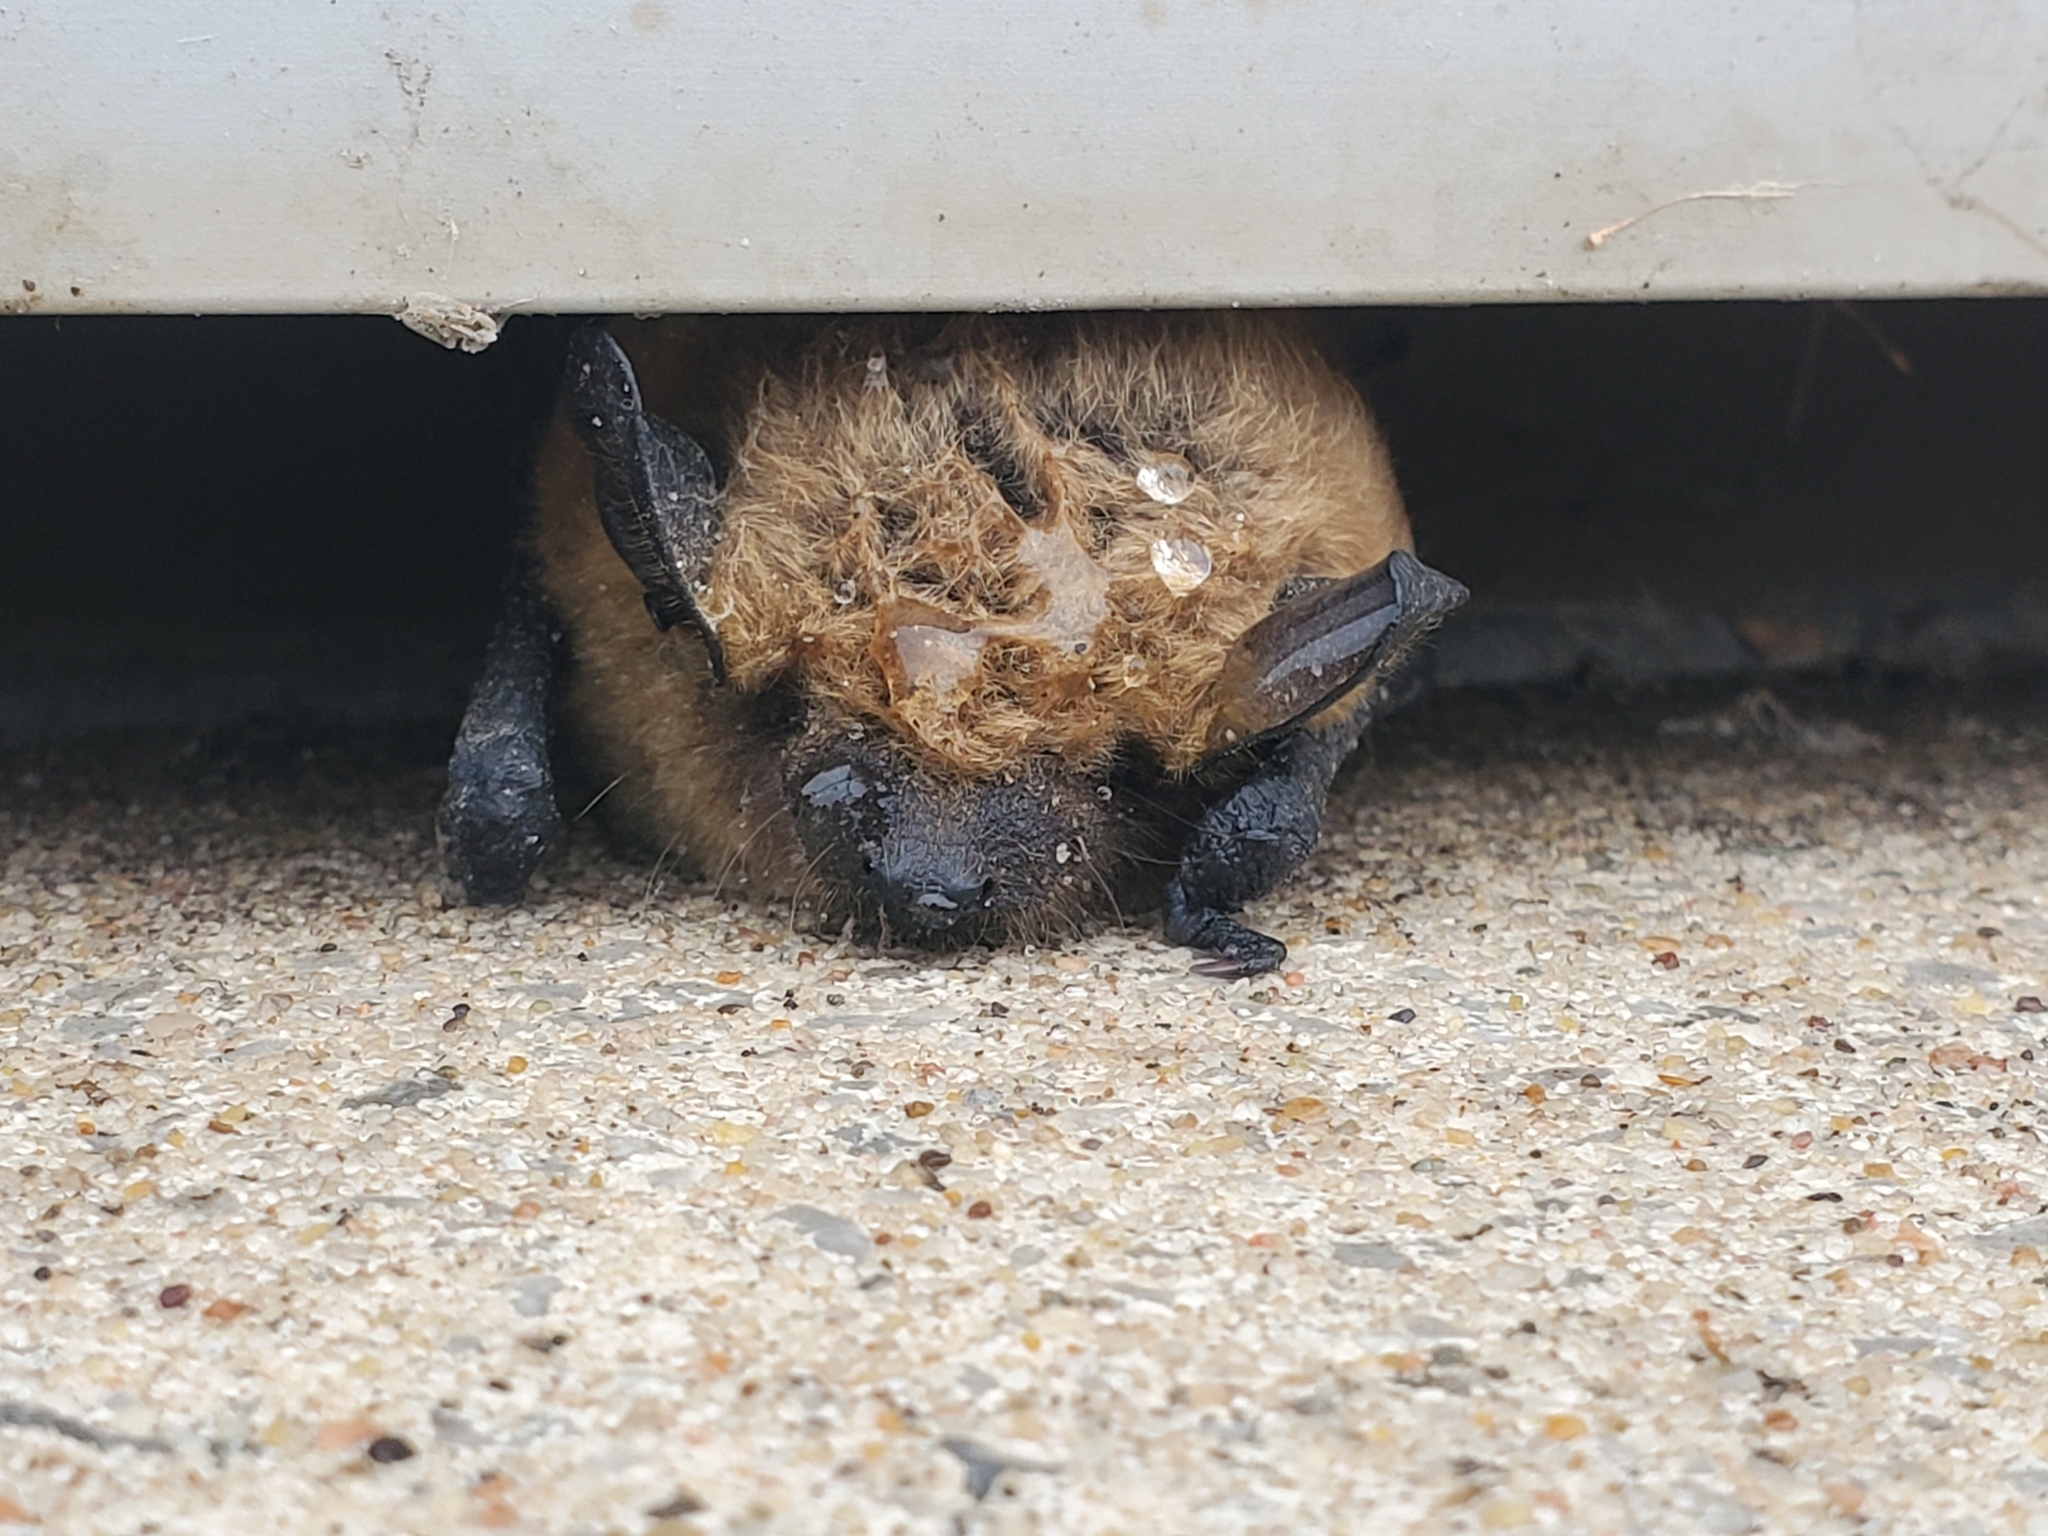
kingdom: Animalia
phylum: Chordata
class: Mammalia
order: Chiroptera
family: Vespertilionidae
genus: Eptesicus
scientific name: Eptesicus fuscus
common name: Big brown bat
